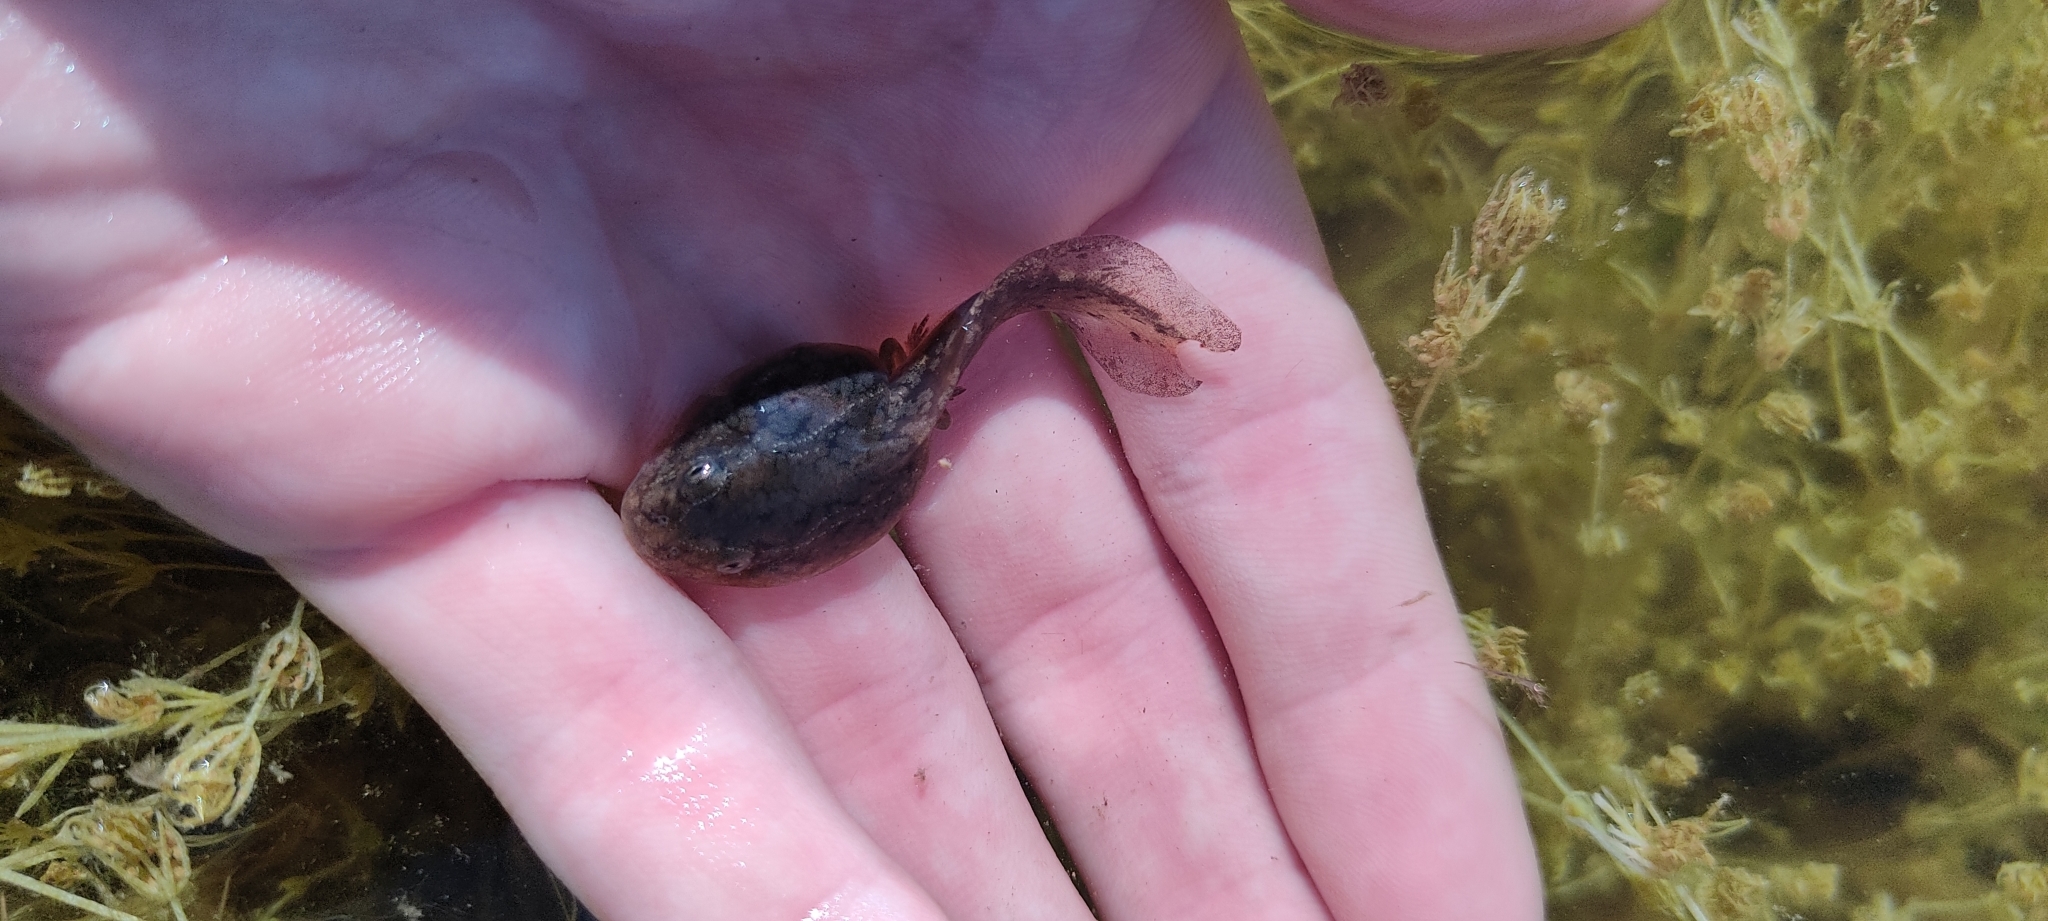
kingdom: Animalia
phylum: Chordata
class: Amphibia
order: Anura
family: Pelodytidae
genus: Pelodytes
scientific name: Pelodytes punctatus
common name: Parsley frog
